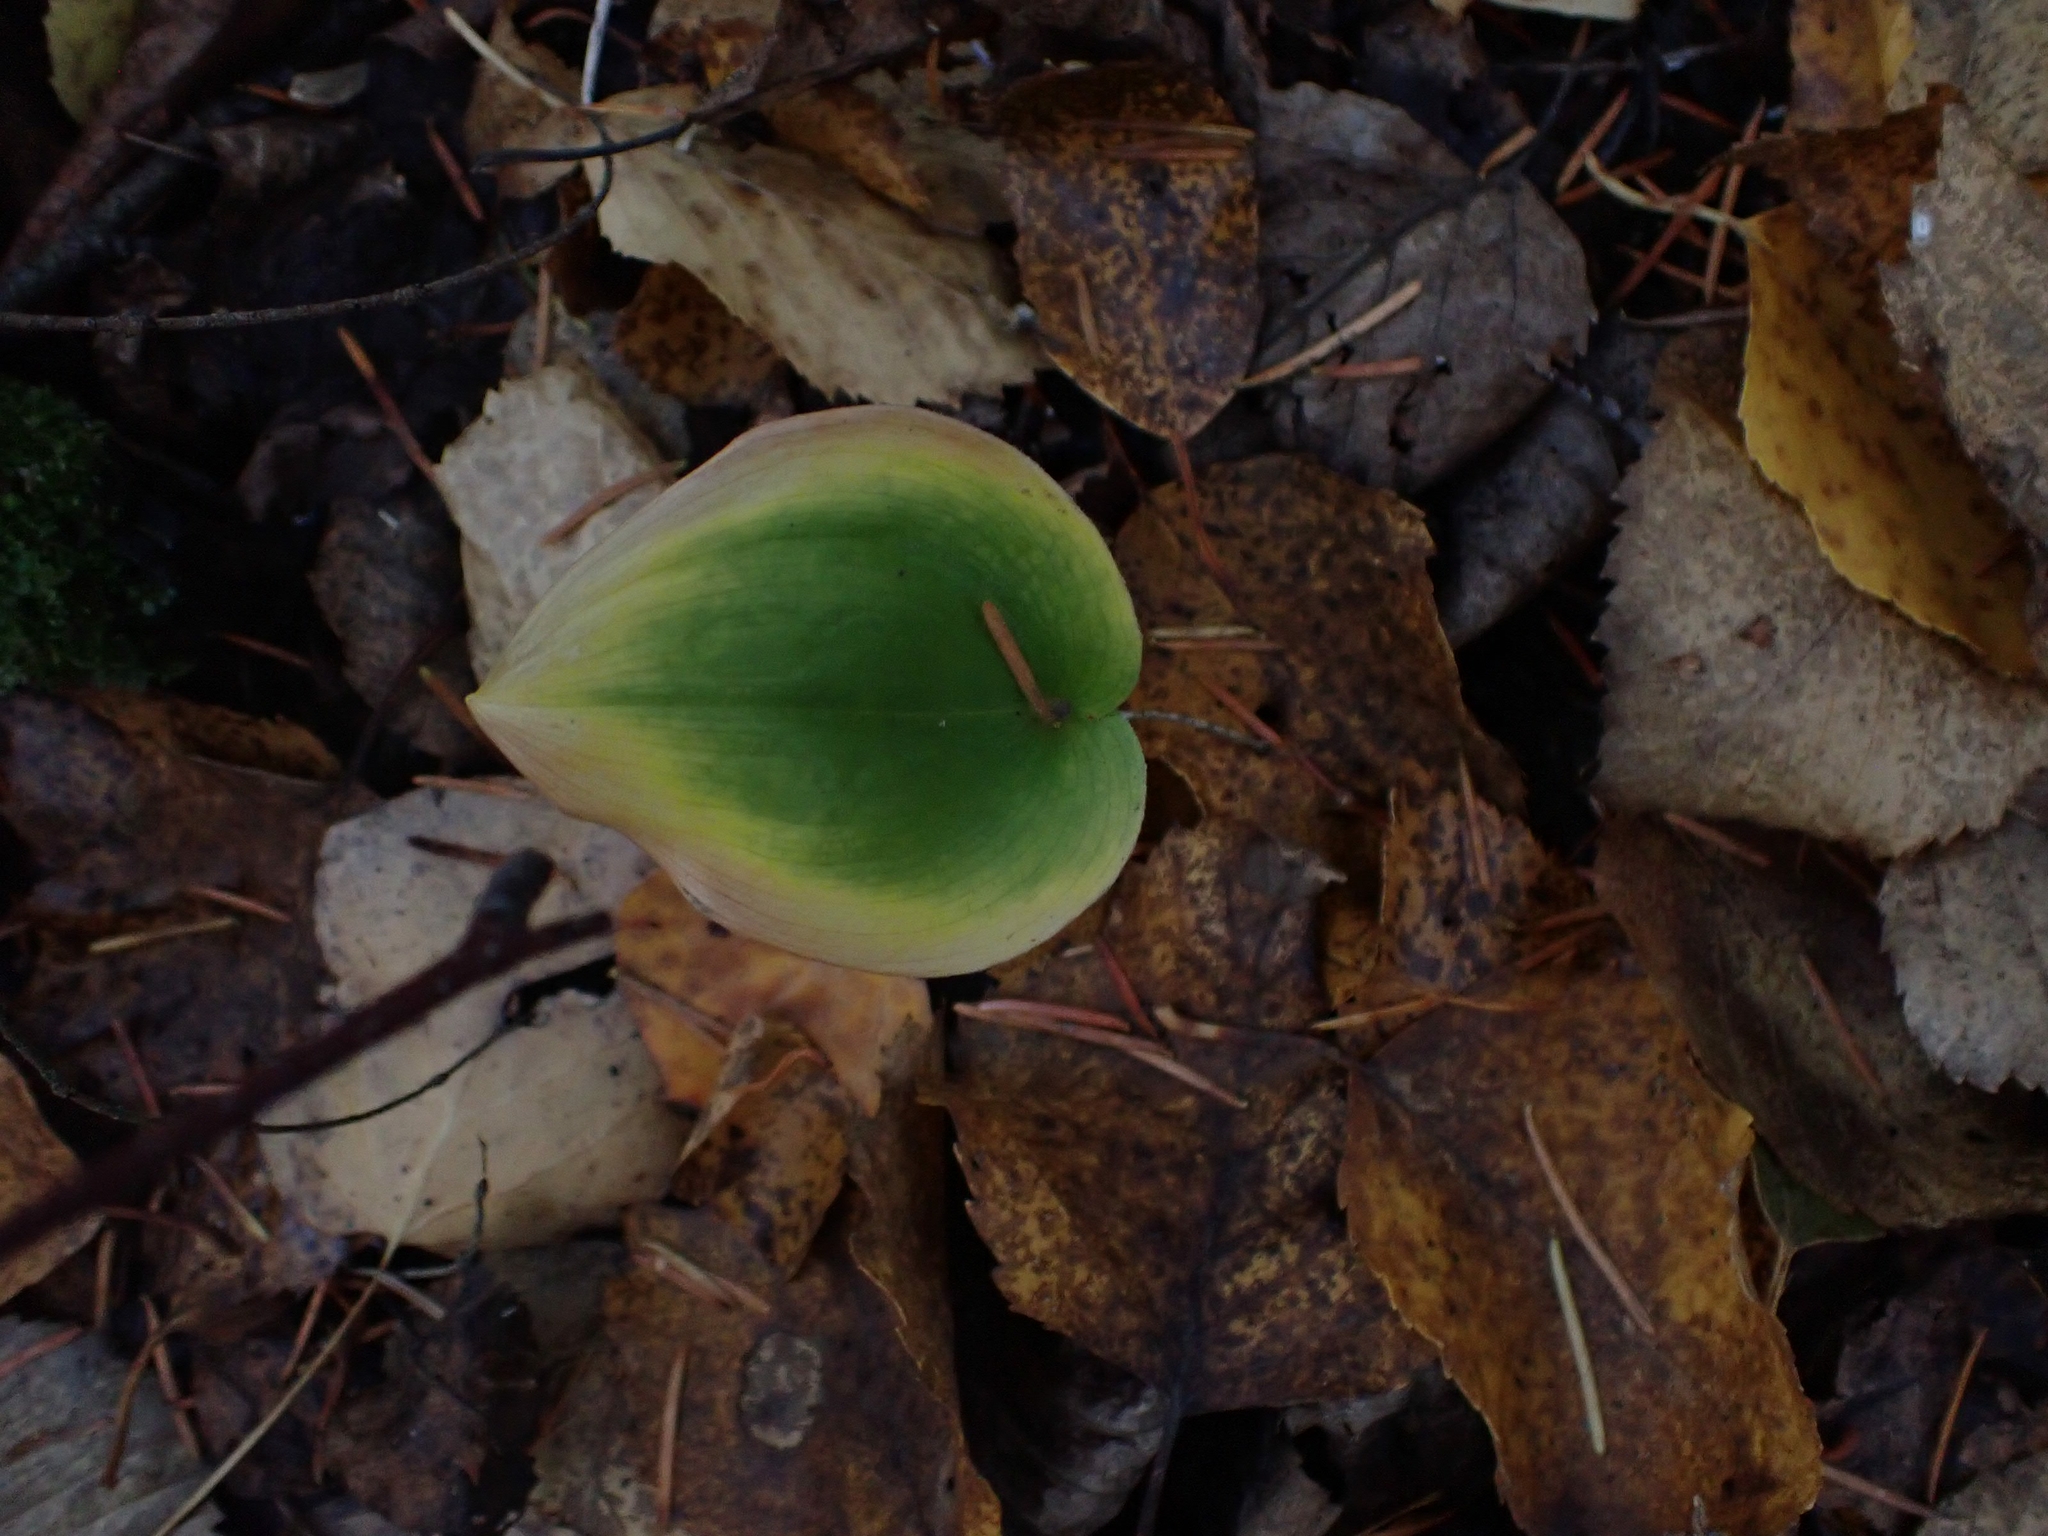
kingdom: Plantae
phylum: Tracheophyta
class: Liliopsida
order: Asparagales
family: Asparagaceae
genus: Maianthemum
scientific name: Maianthemum canadense
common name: False lily-of-the-valley
